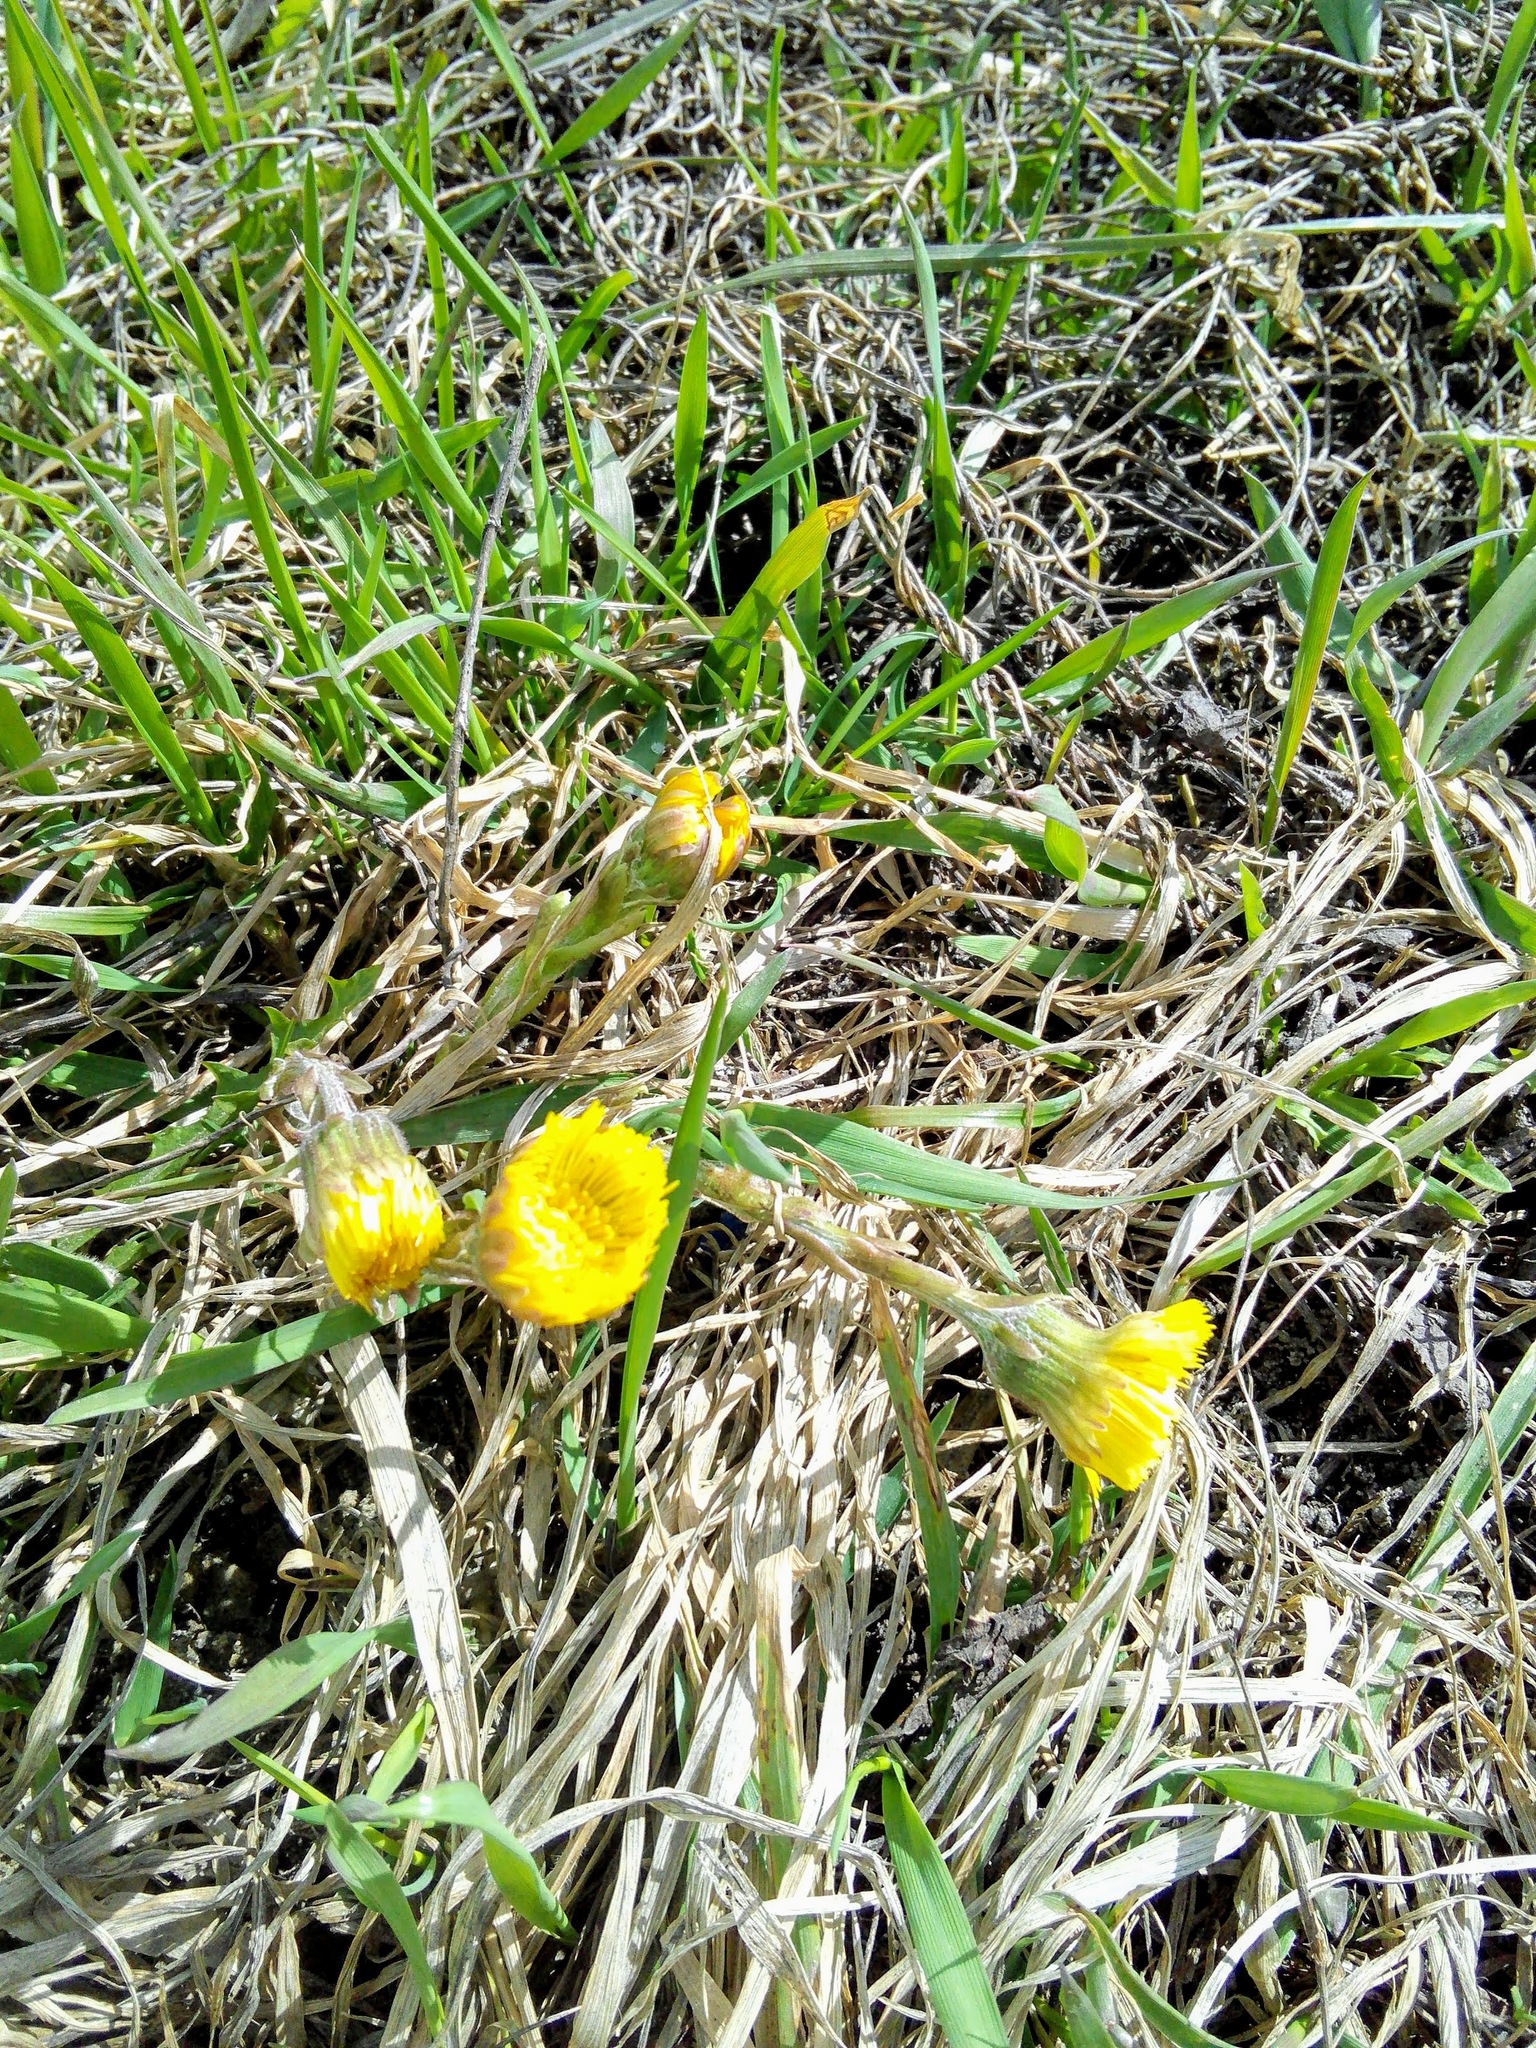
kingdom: Plantae
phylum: Tracheophyta
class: Magnoliopsida
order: Asterales
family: Asteraceae
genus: Tussilago
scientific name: Tussilago farfara
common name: Coltsfoot
